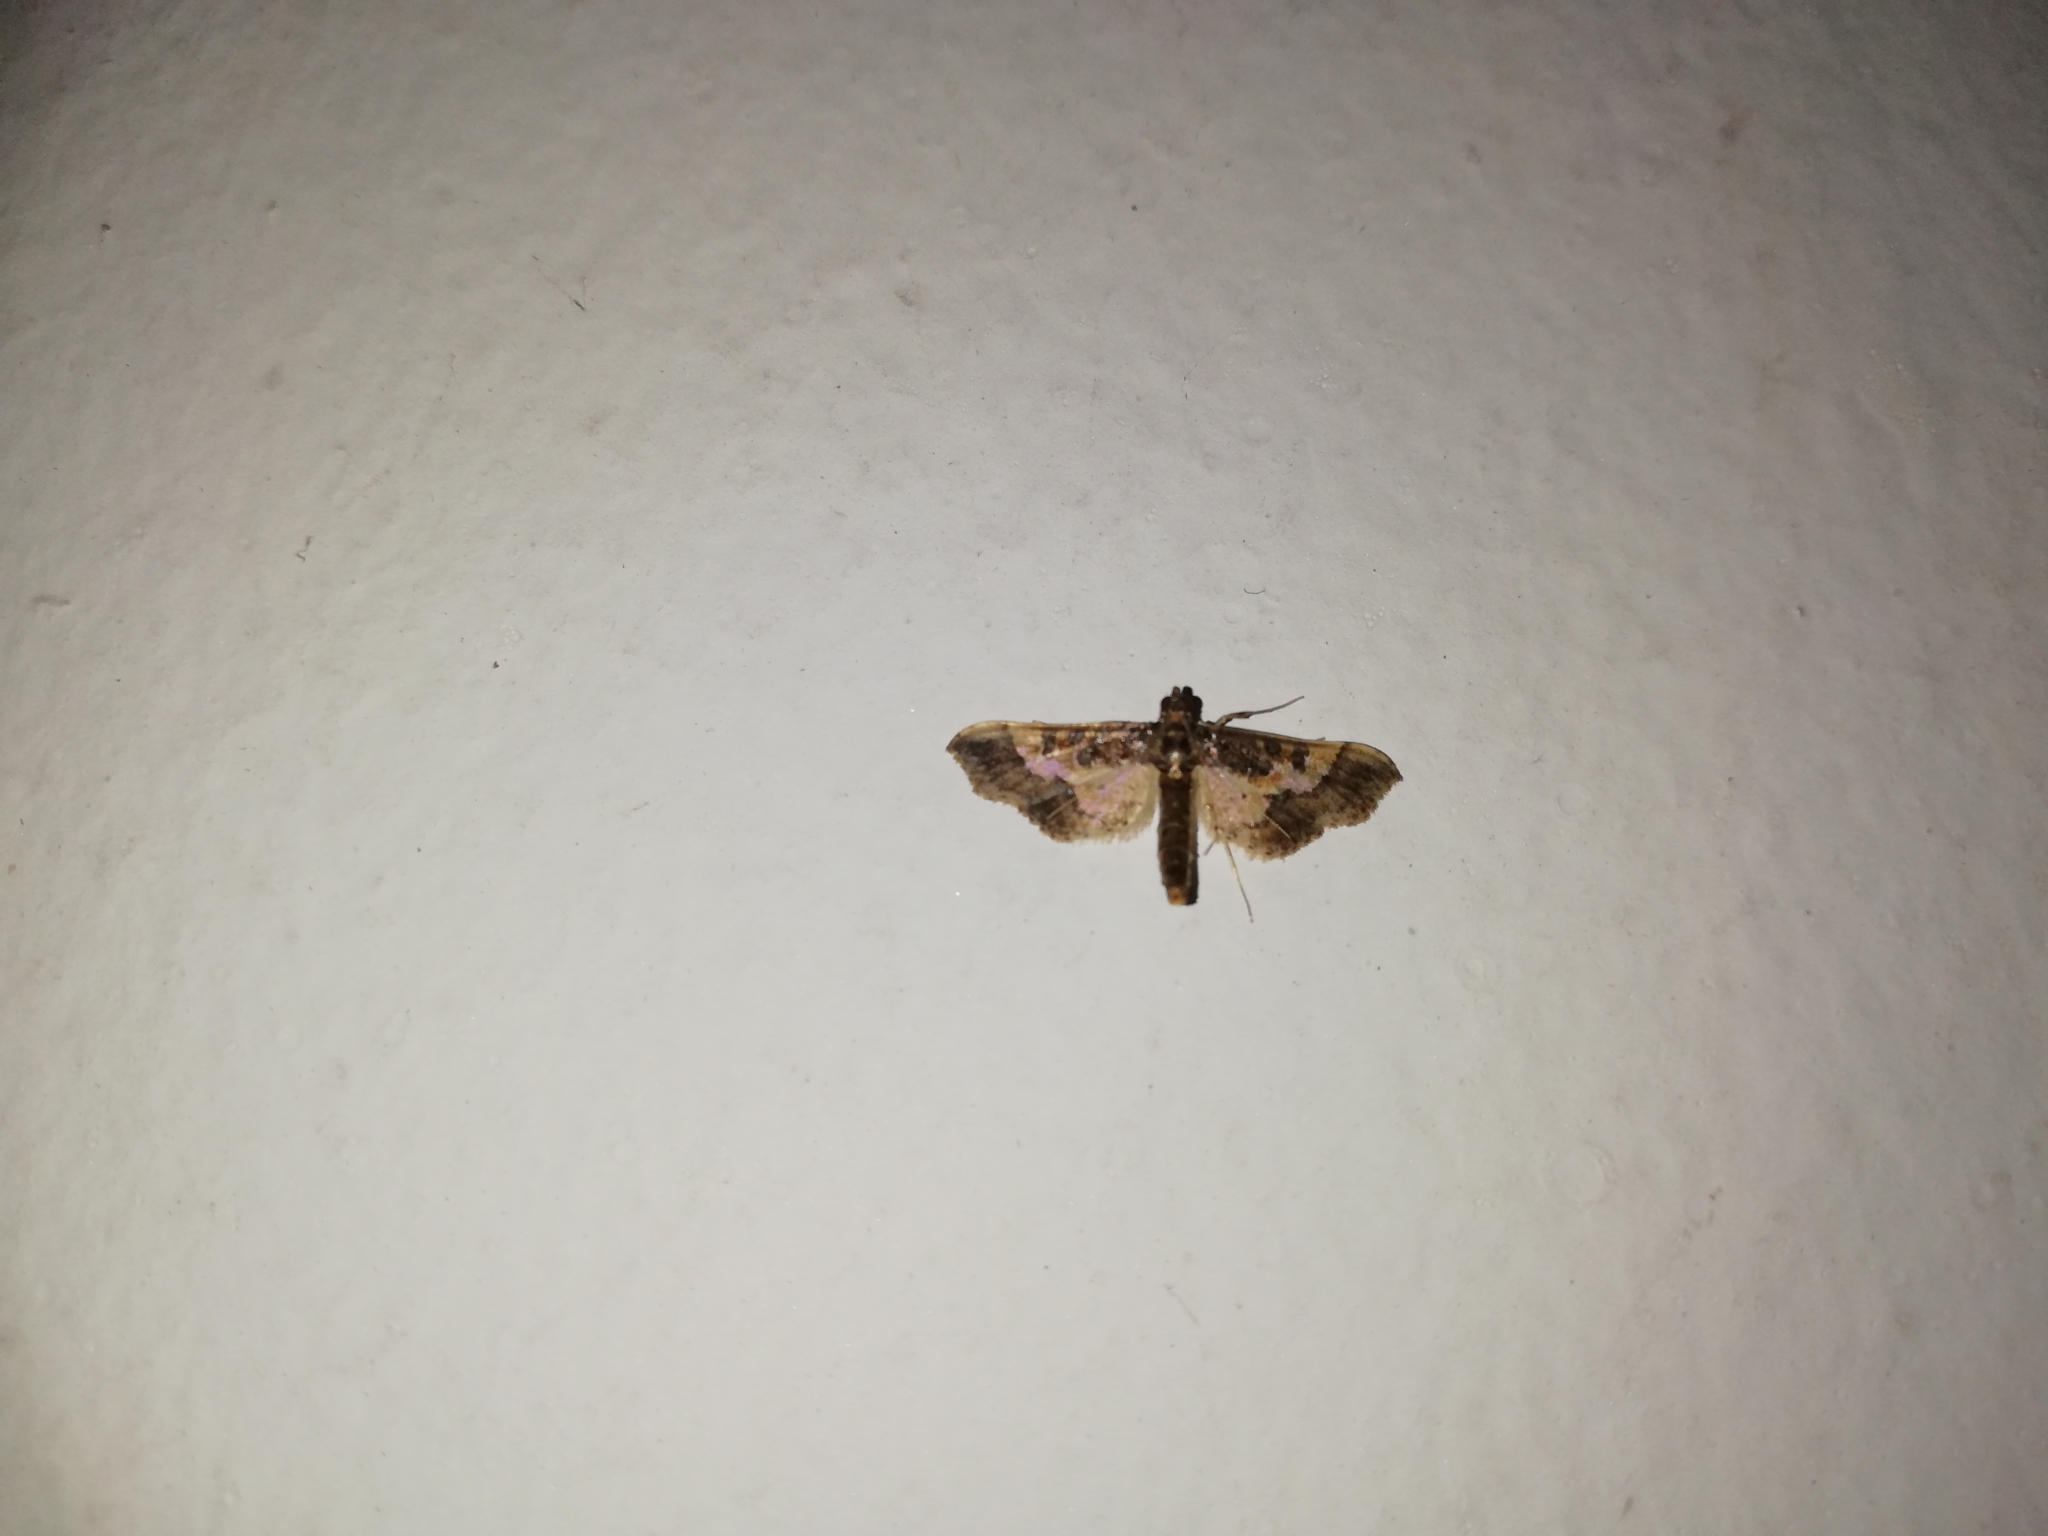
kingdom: Animalia
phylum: Arthropoda
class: Insecta
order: Lepidoptera
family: Crambidae
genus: Hydriris
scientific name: Hydriris ornatalis
